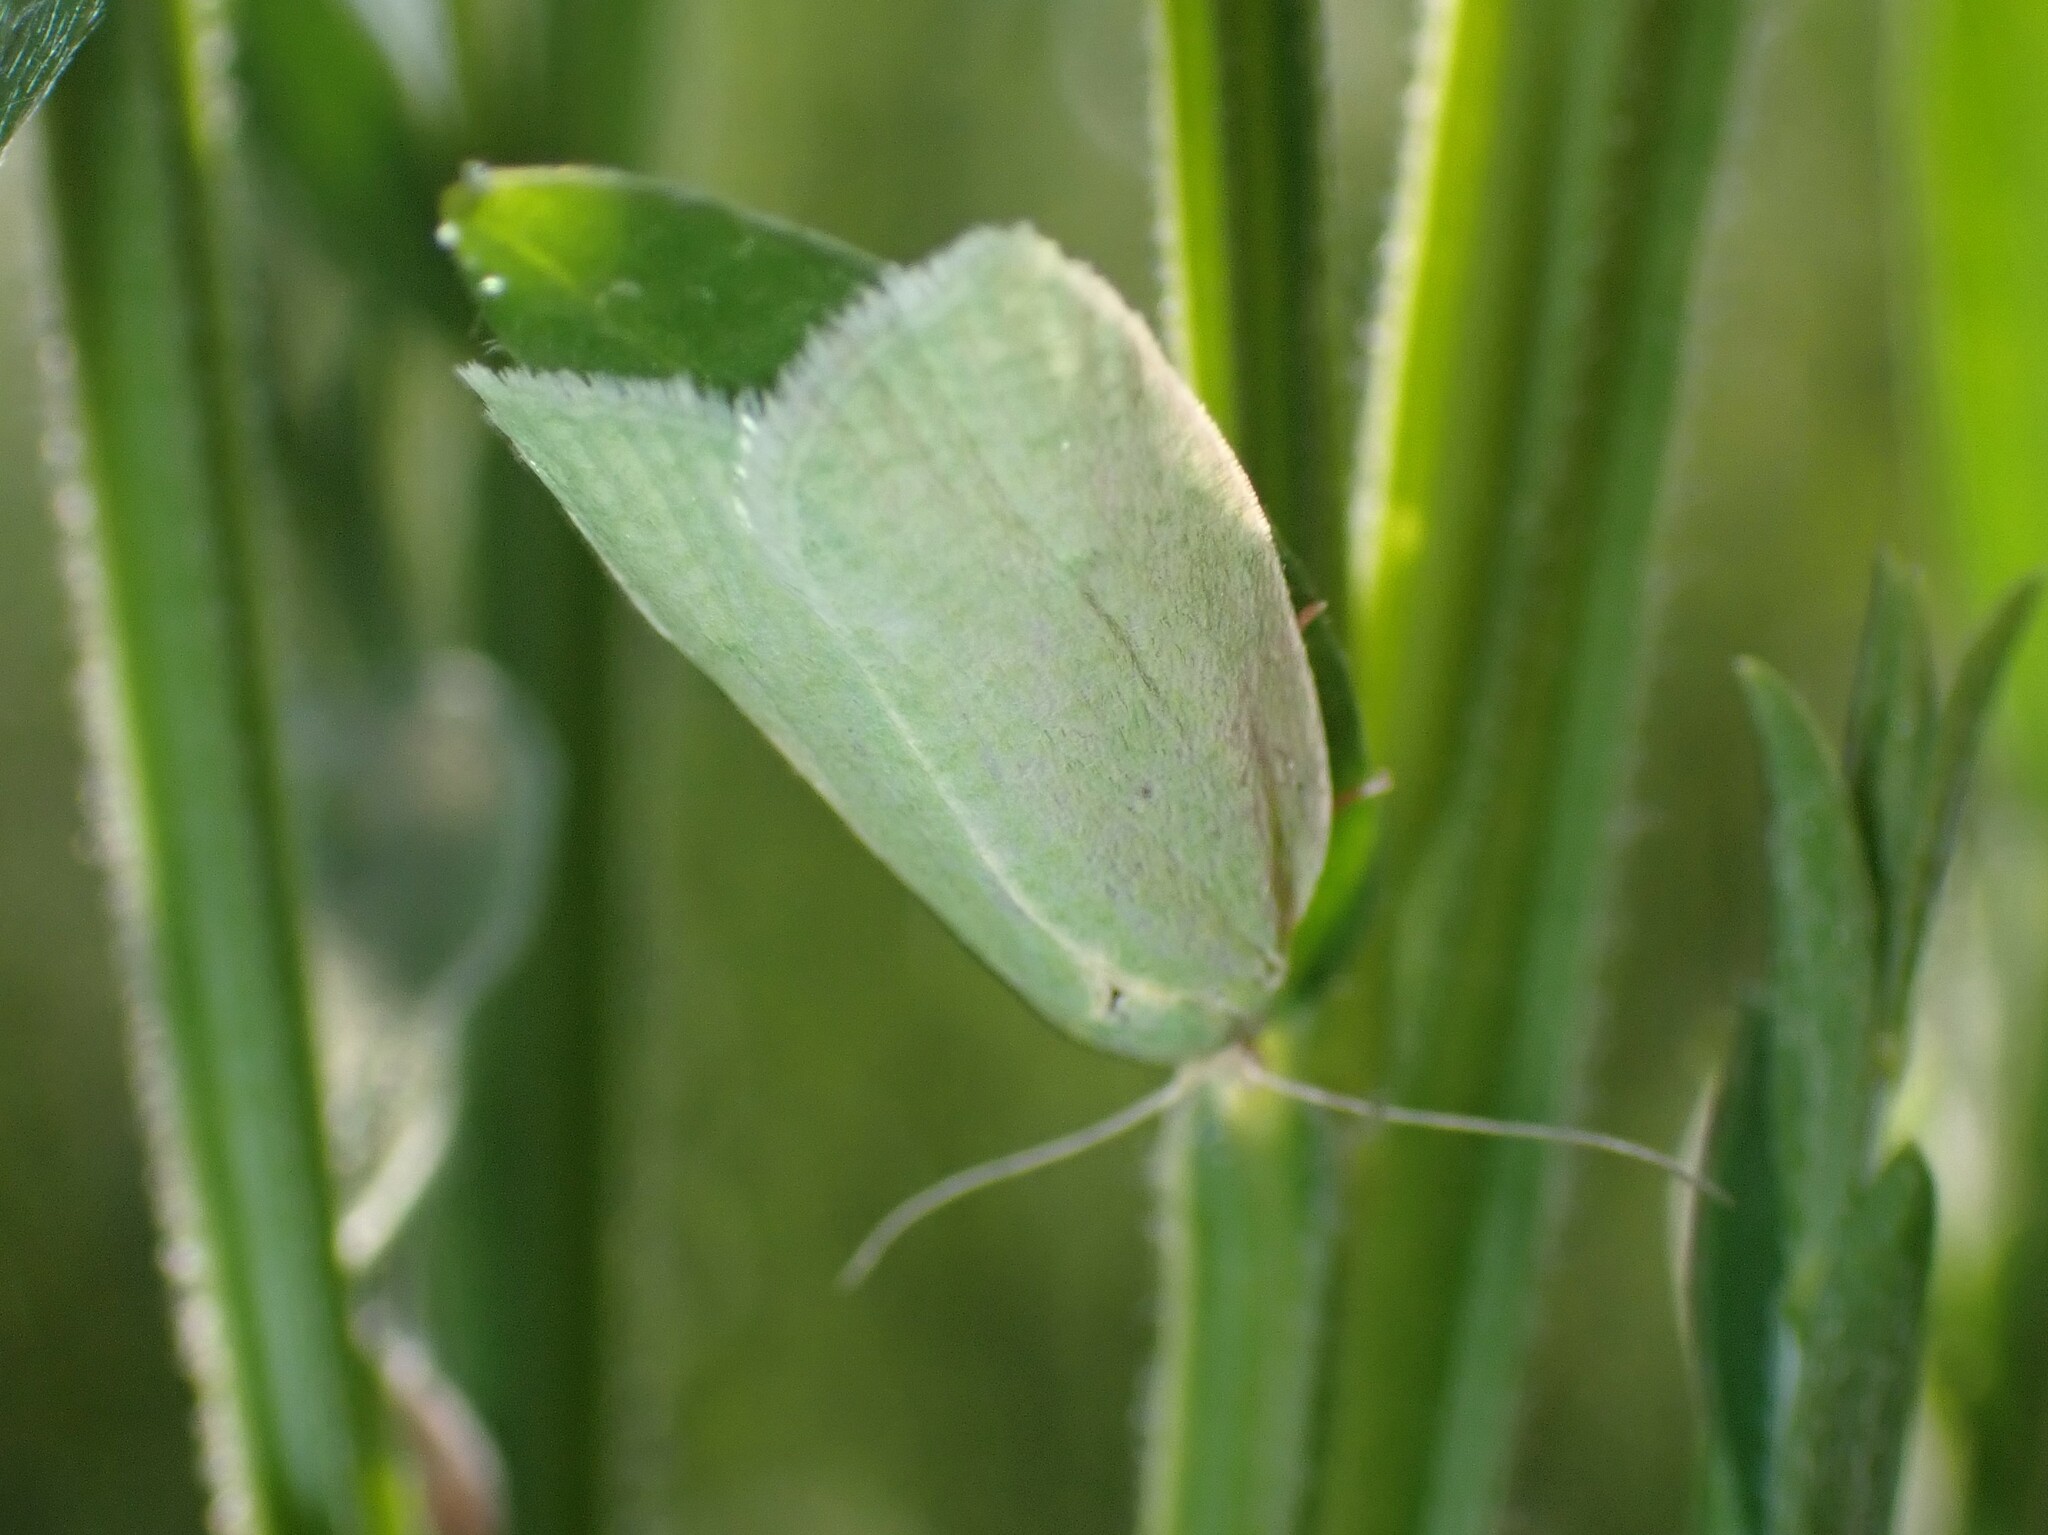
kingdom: Animalia
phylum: Arthropoda
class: Insecta
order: Lepidoptera
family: Tortricidae
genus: Tortrix
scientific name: Tortrix viridana
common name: Green oak tortrix
